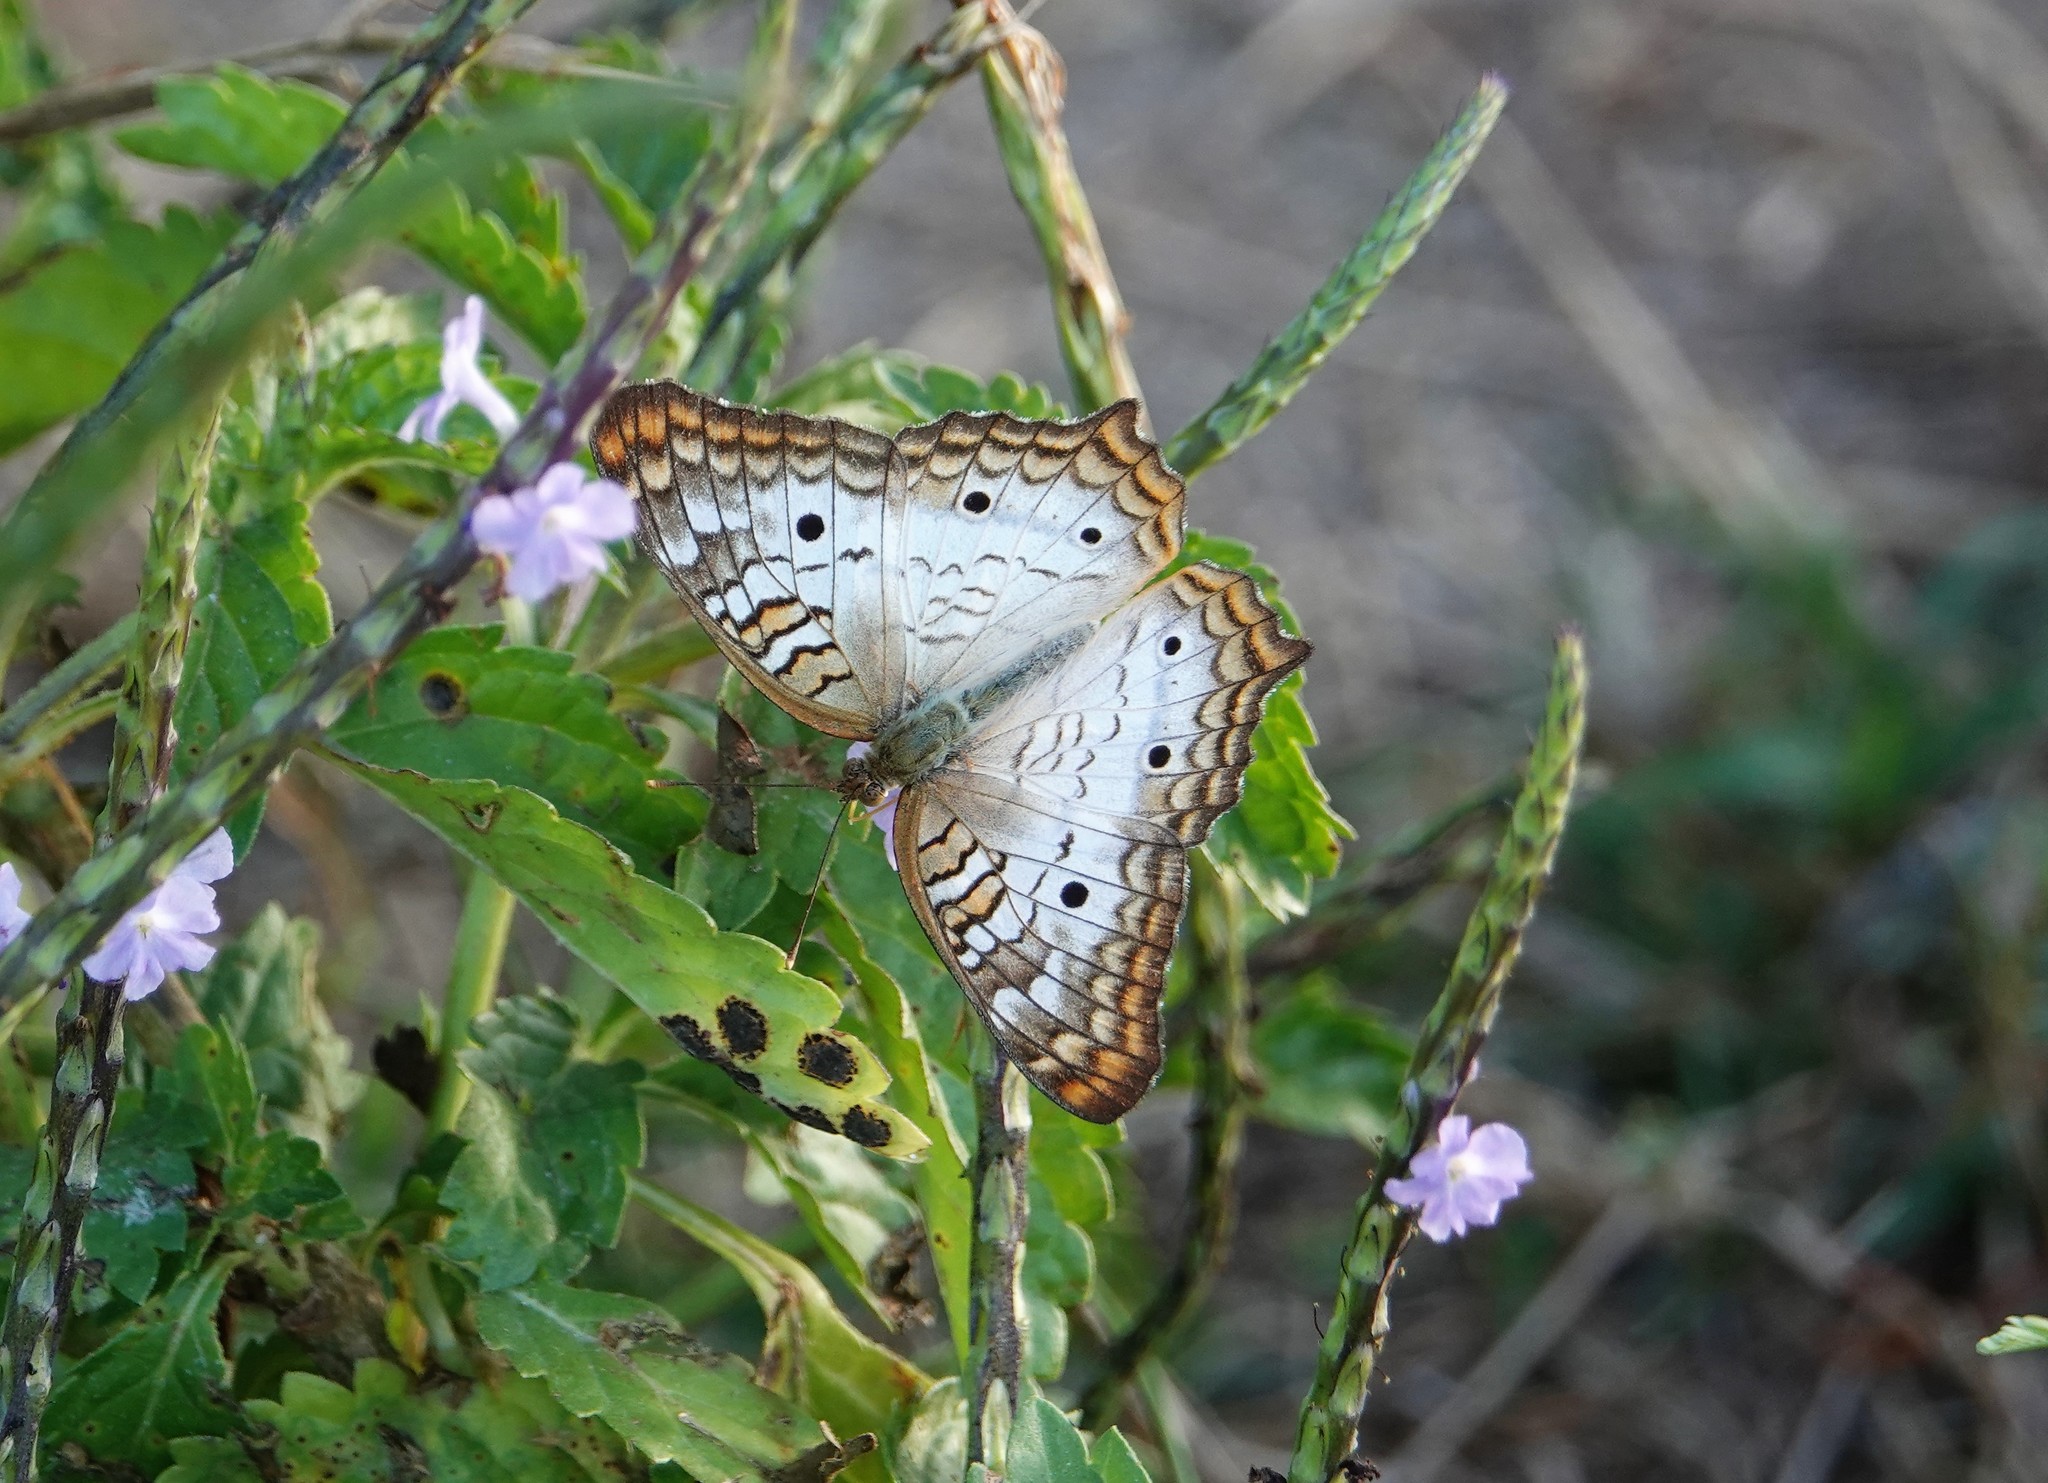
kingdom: Animalia
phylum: Arthropoda
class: Insecta
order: Lepidoptera
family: Nymphalidae
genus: Anartia
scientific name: Anartia jatrophae
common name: White peacock
